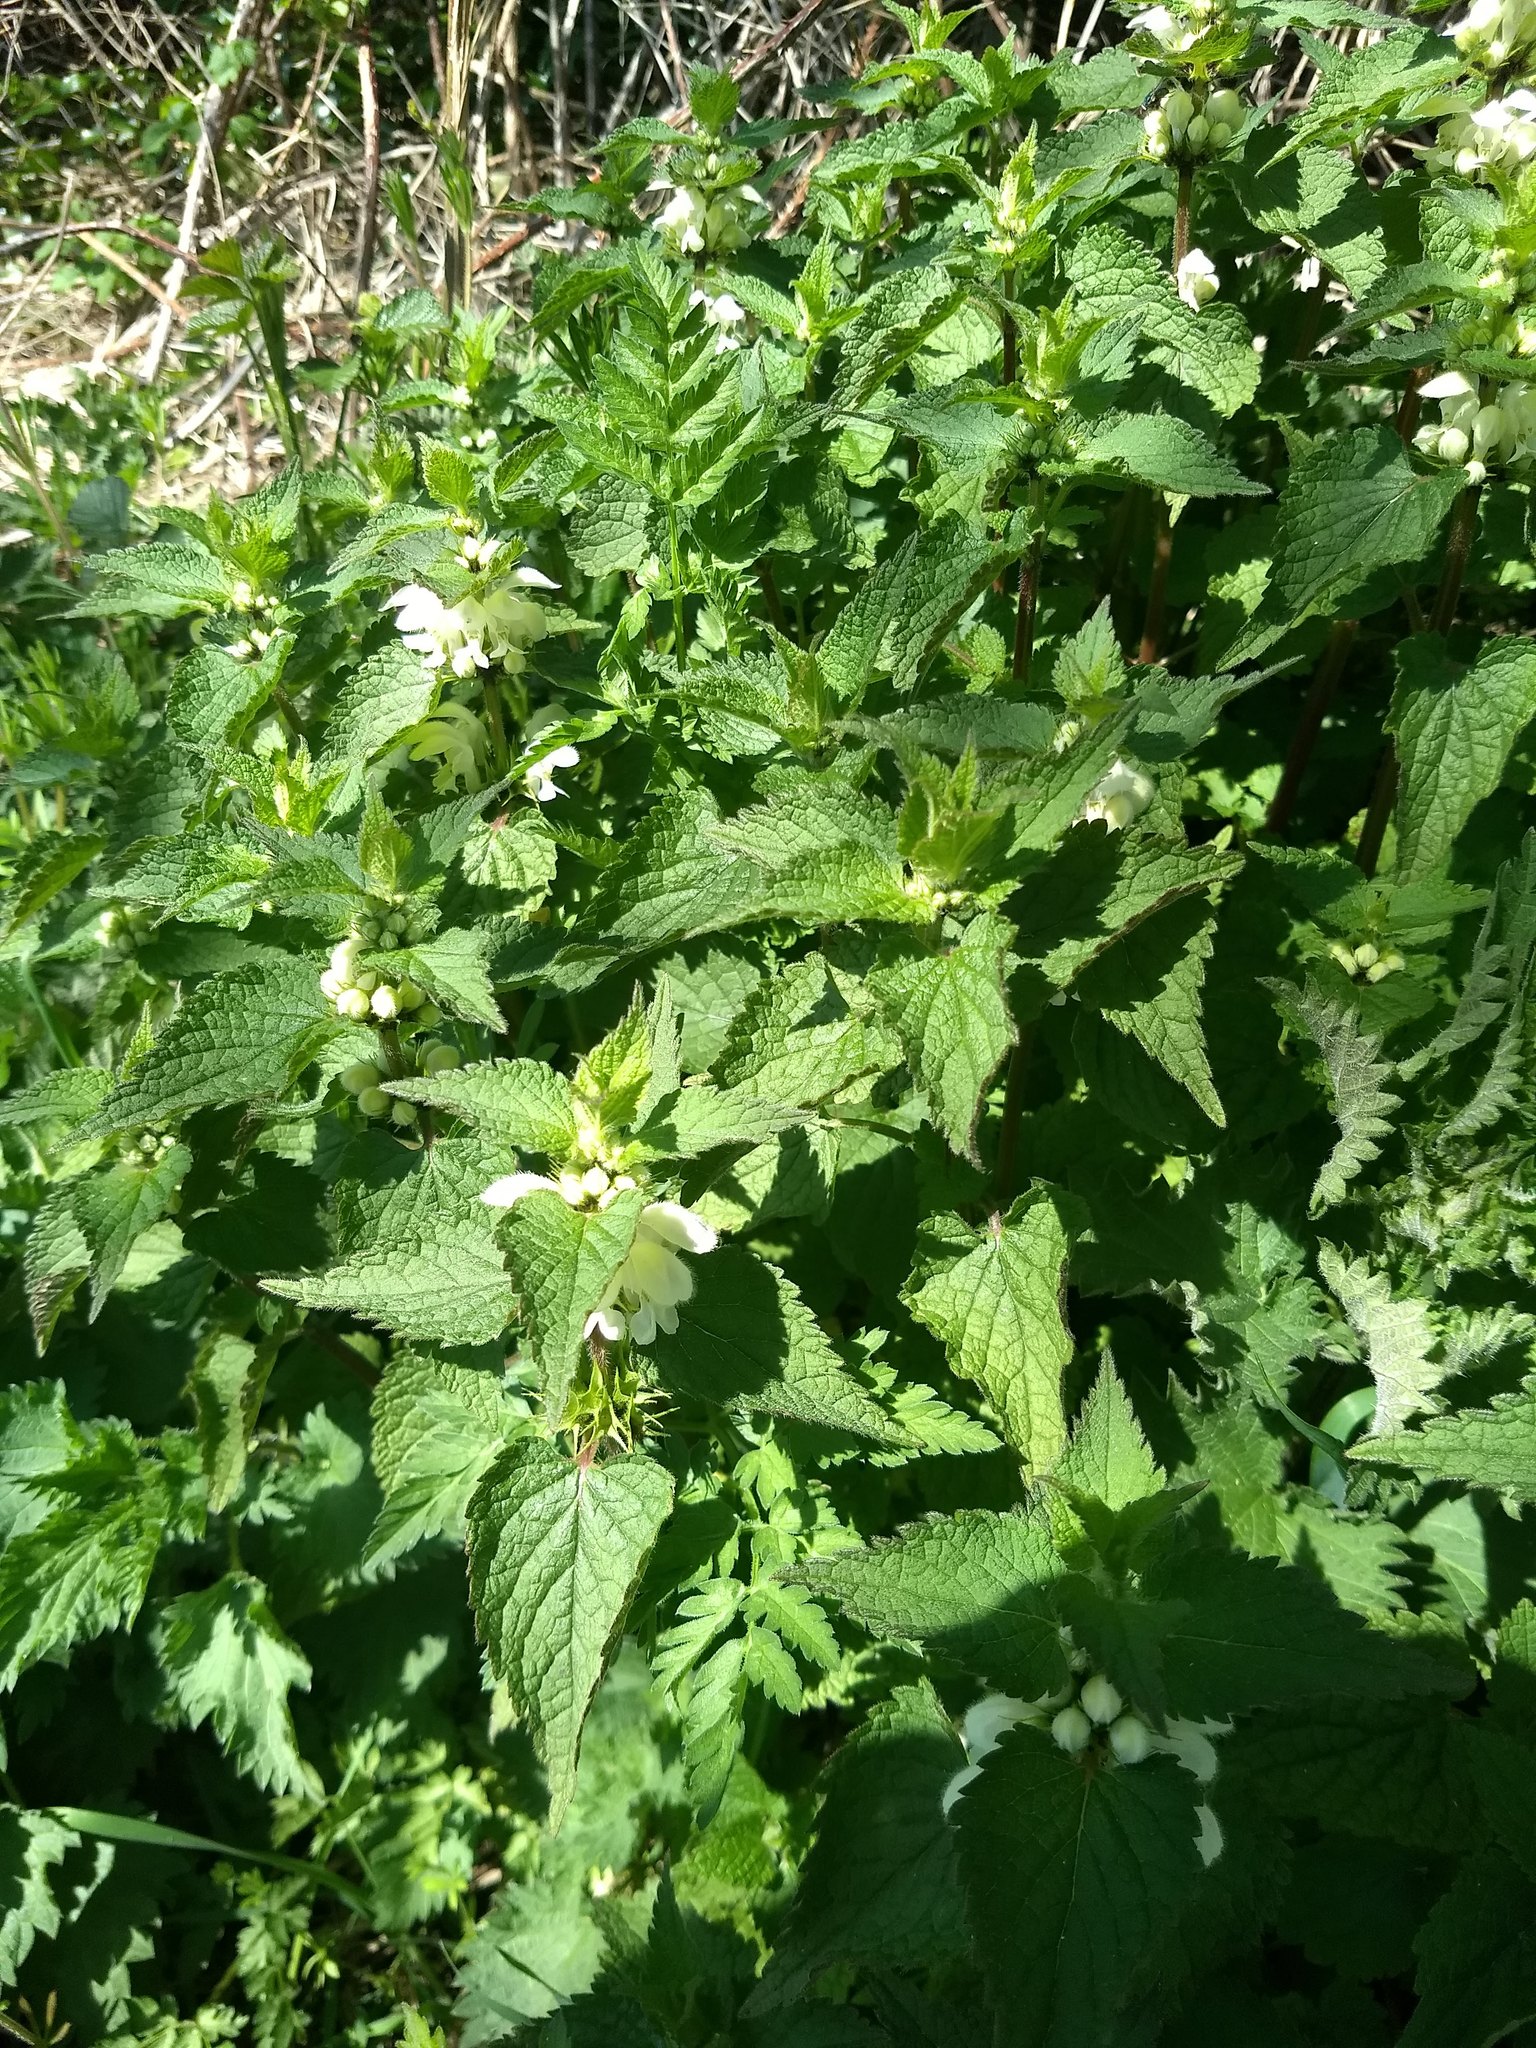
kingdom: Plantae
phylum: Tracheophyta
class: Magnoliopsida
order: Lamiales
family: Lamiaceae
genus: Lamium
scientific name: Lamium album
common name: White dead-nettle
